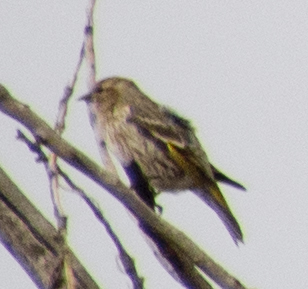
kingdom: Animalia
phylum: Chordata
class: Aves
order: Passeriformes
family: Fringillidae
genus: Spinus
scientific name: Spinus pinus
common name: Pine siskin
